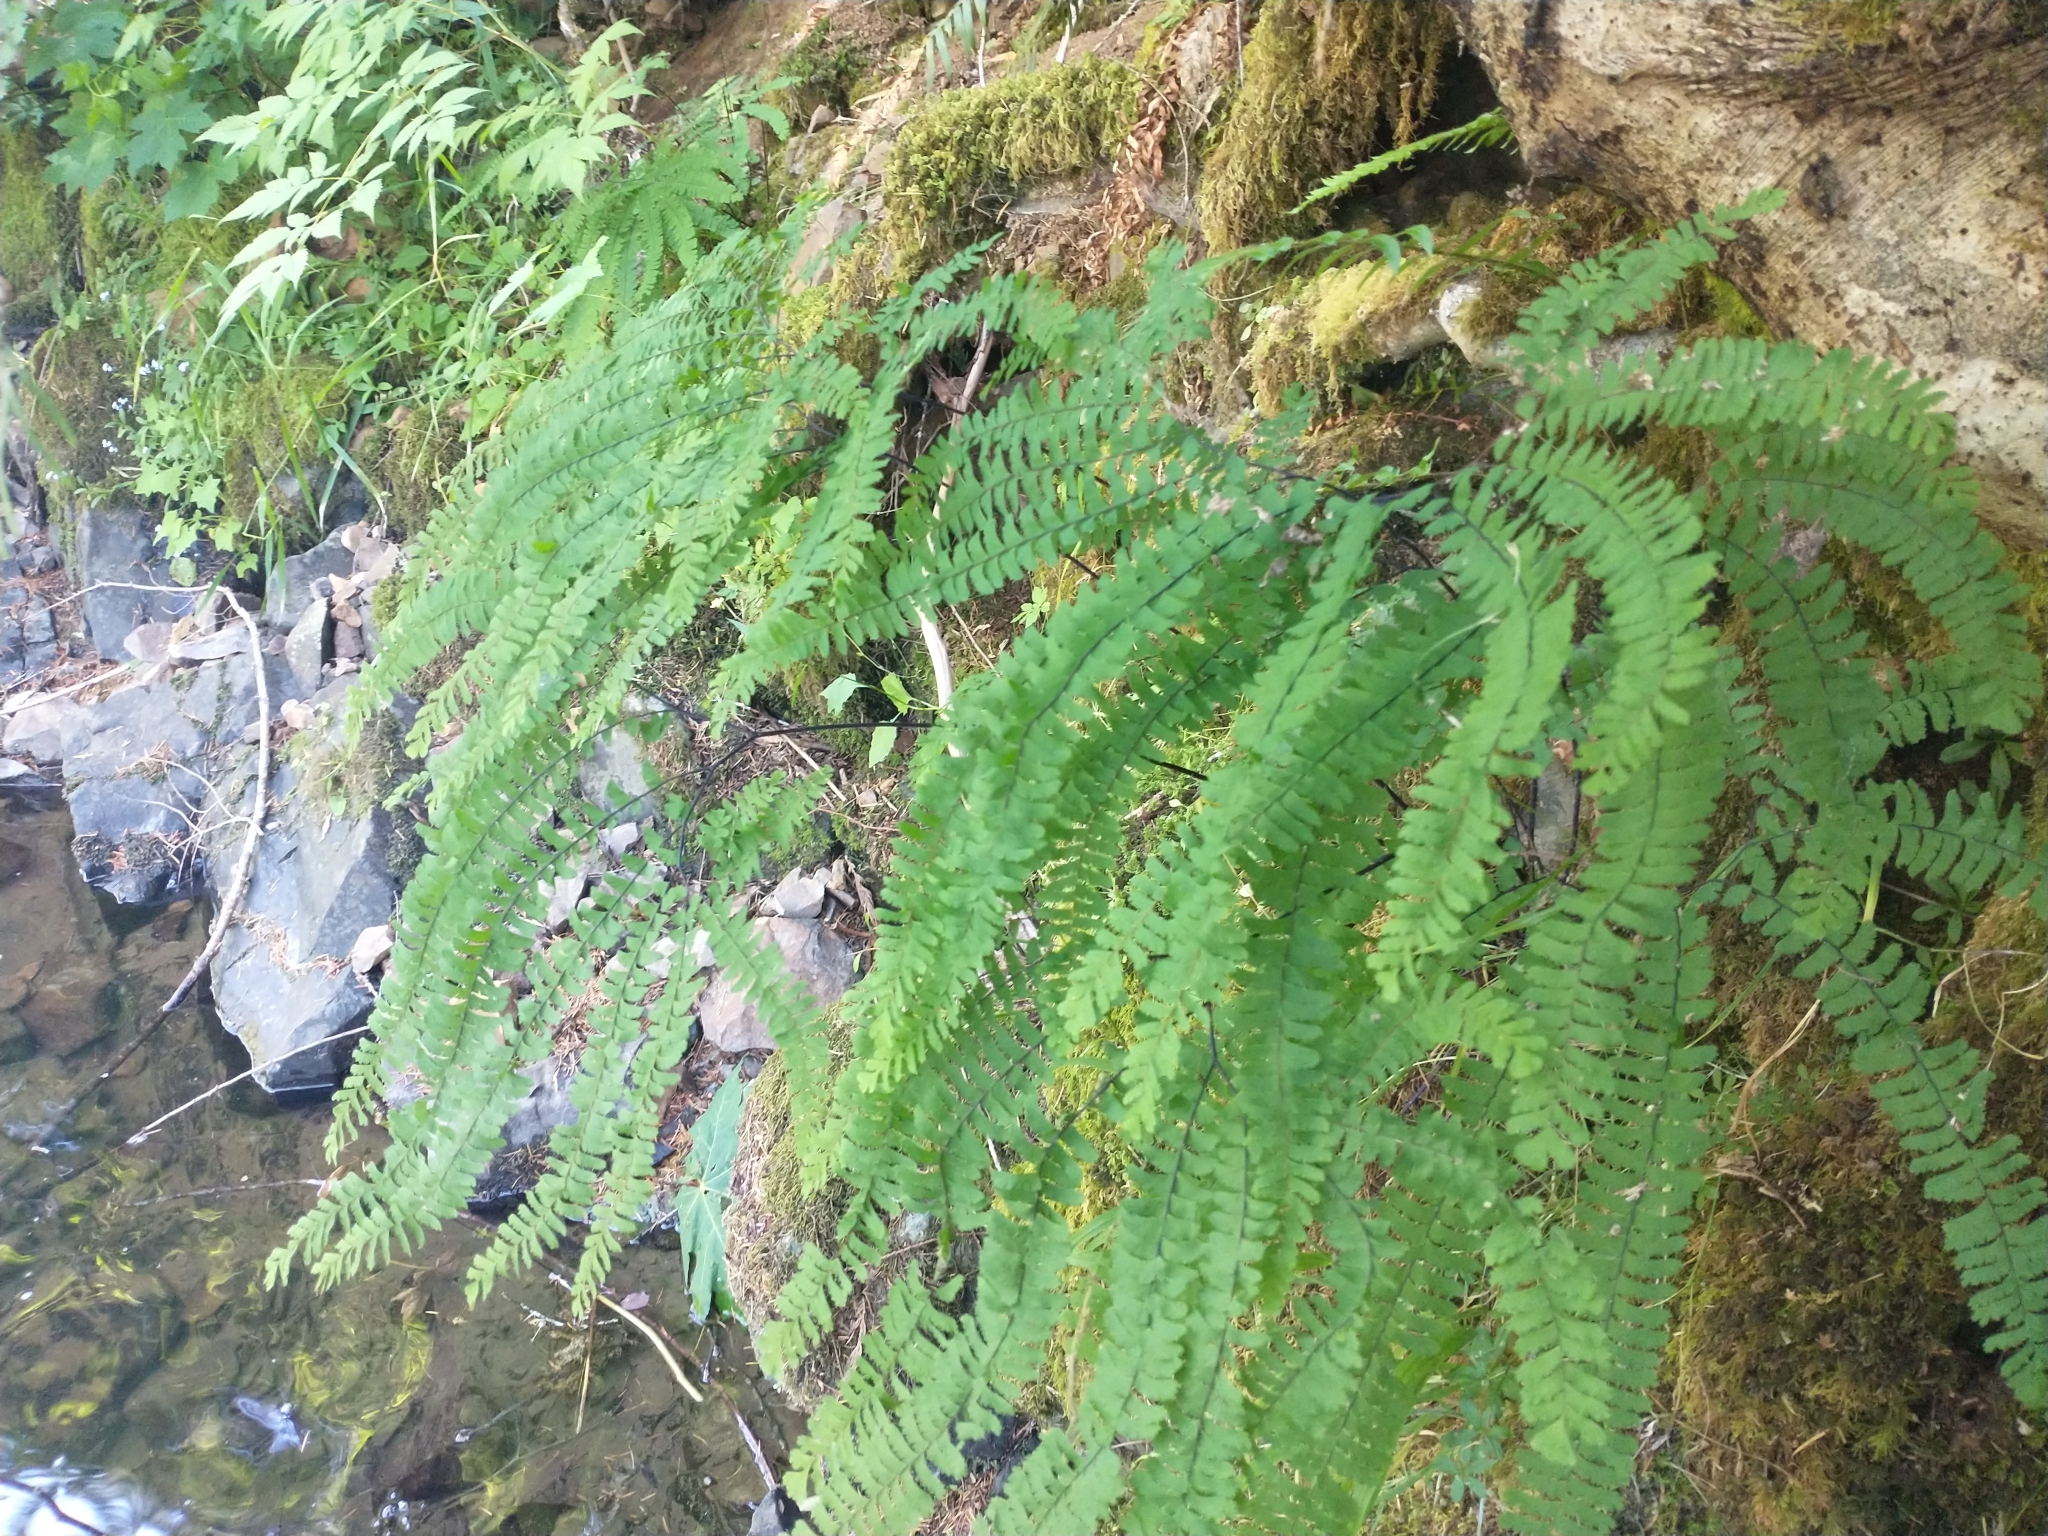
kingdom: Plantae
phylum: Tracheophyta
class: Polypodiopsida
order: Polypodiales
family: Pteridaceae
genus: Adiantum
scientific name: Adiantum aleuticum
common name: Aleutian maidenhair fern
